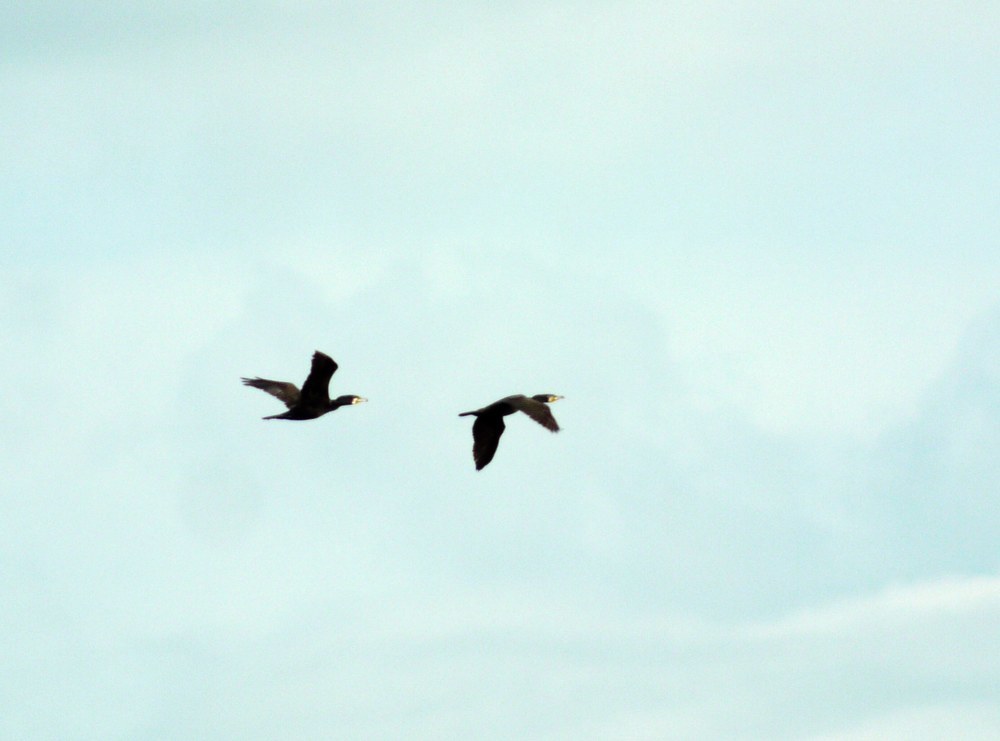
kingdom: Animalia
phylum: Chordata
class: Aves
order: Suliformes
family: Phalacrocoracidae
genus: Phalacrocorax
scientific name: Phalacrocorax carbo
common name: Great cormorant
